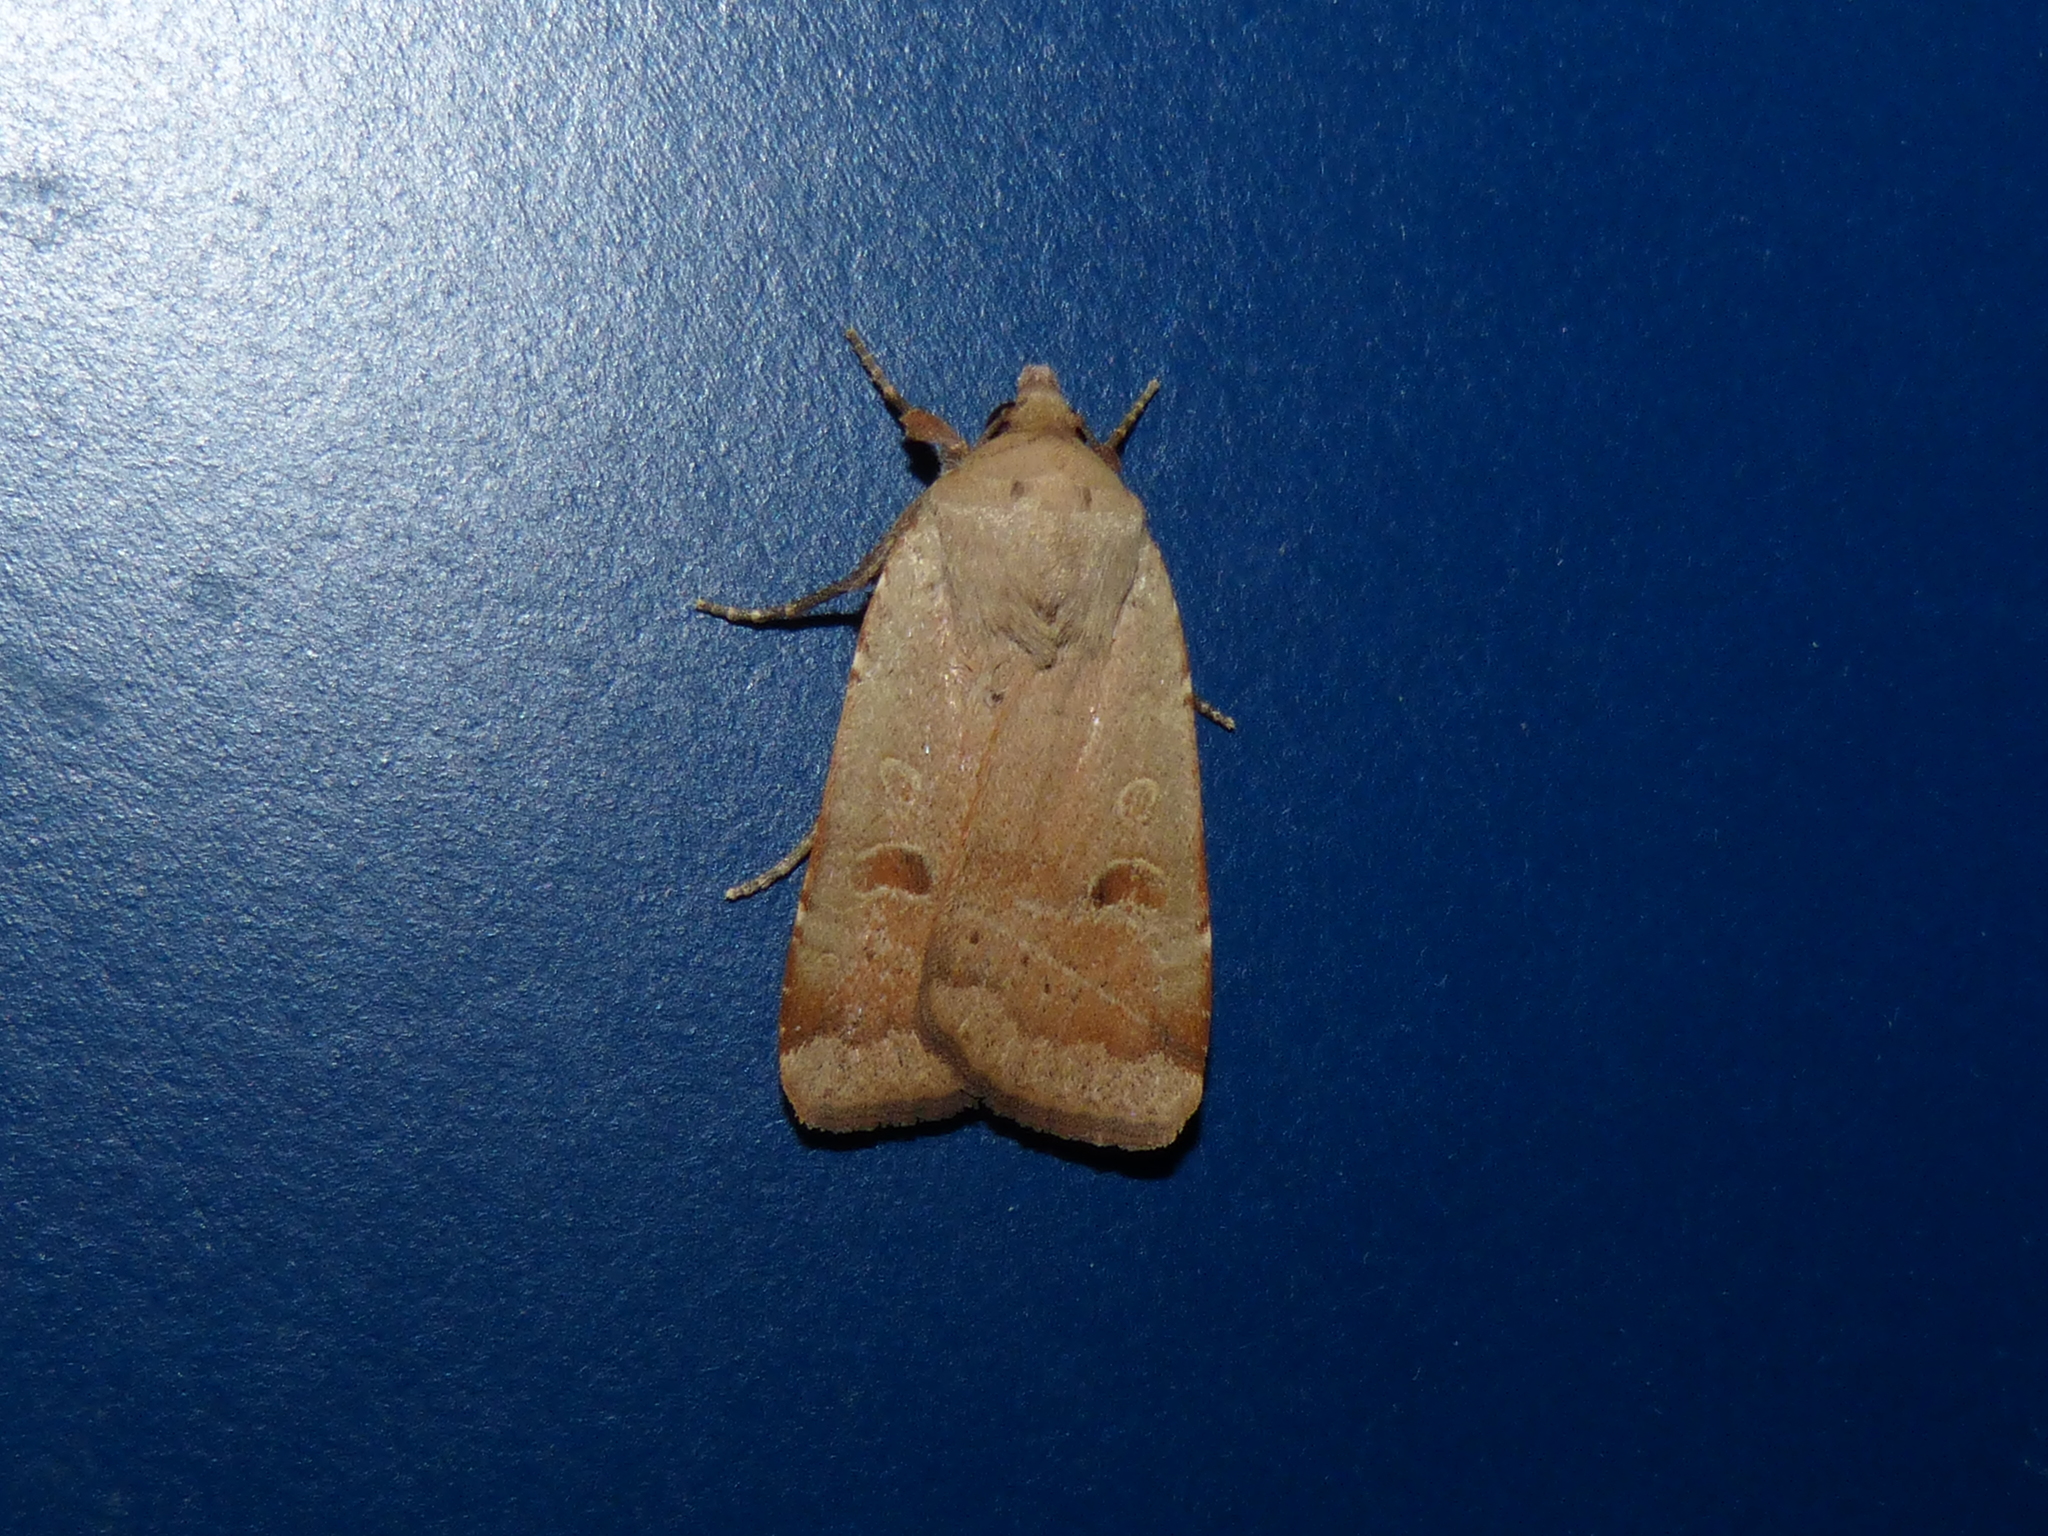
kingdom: Animalia
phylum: Arthropoda
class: Insecta
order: Lepidoptera
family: Noctuidae
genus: Noctua
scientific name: Noctua comes
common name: Lesser yellow underwing
